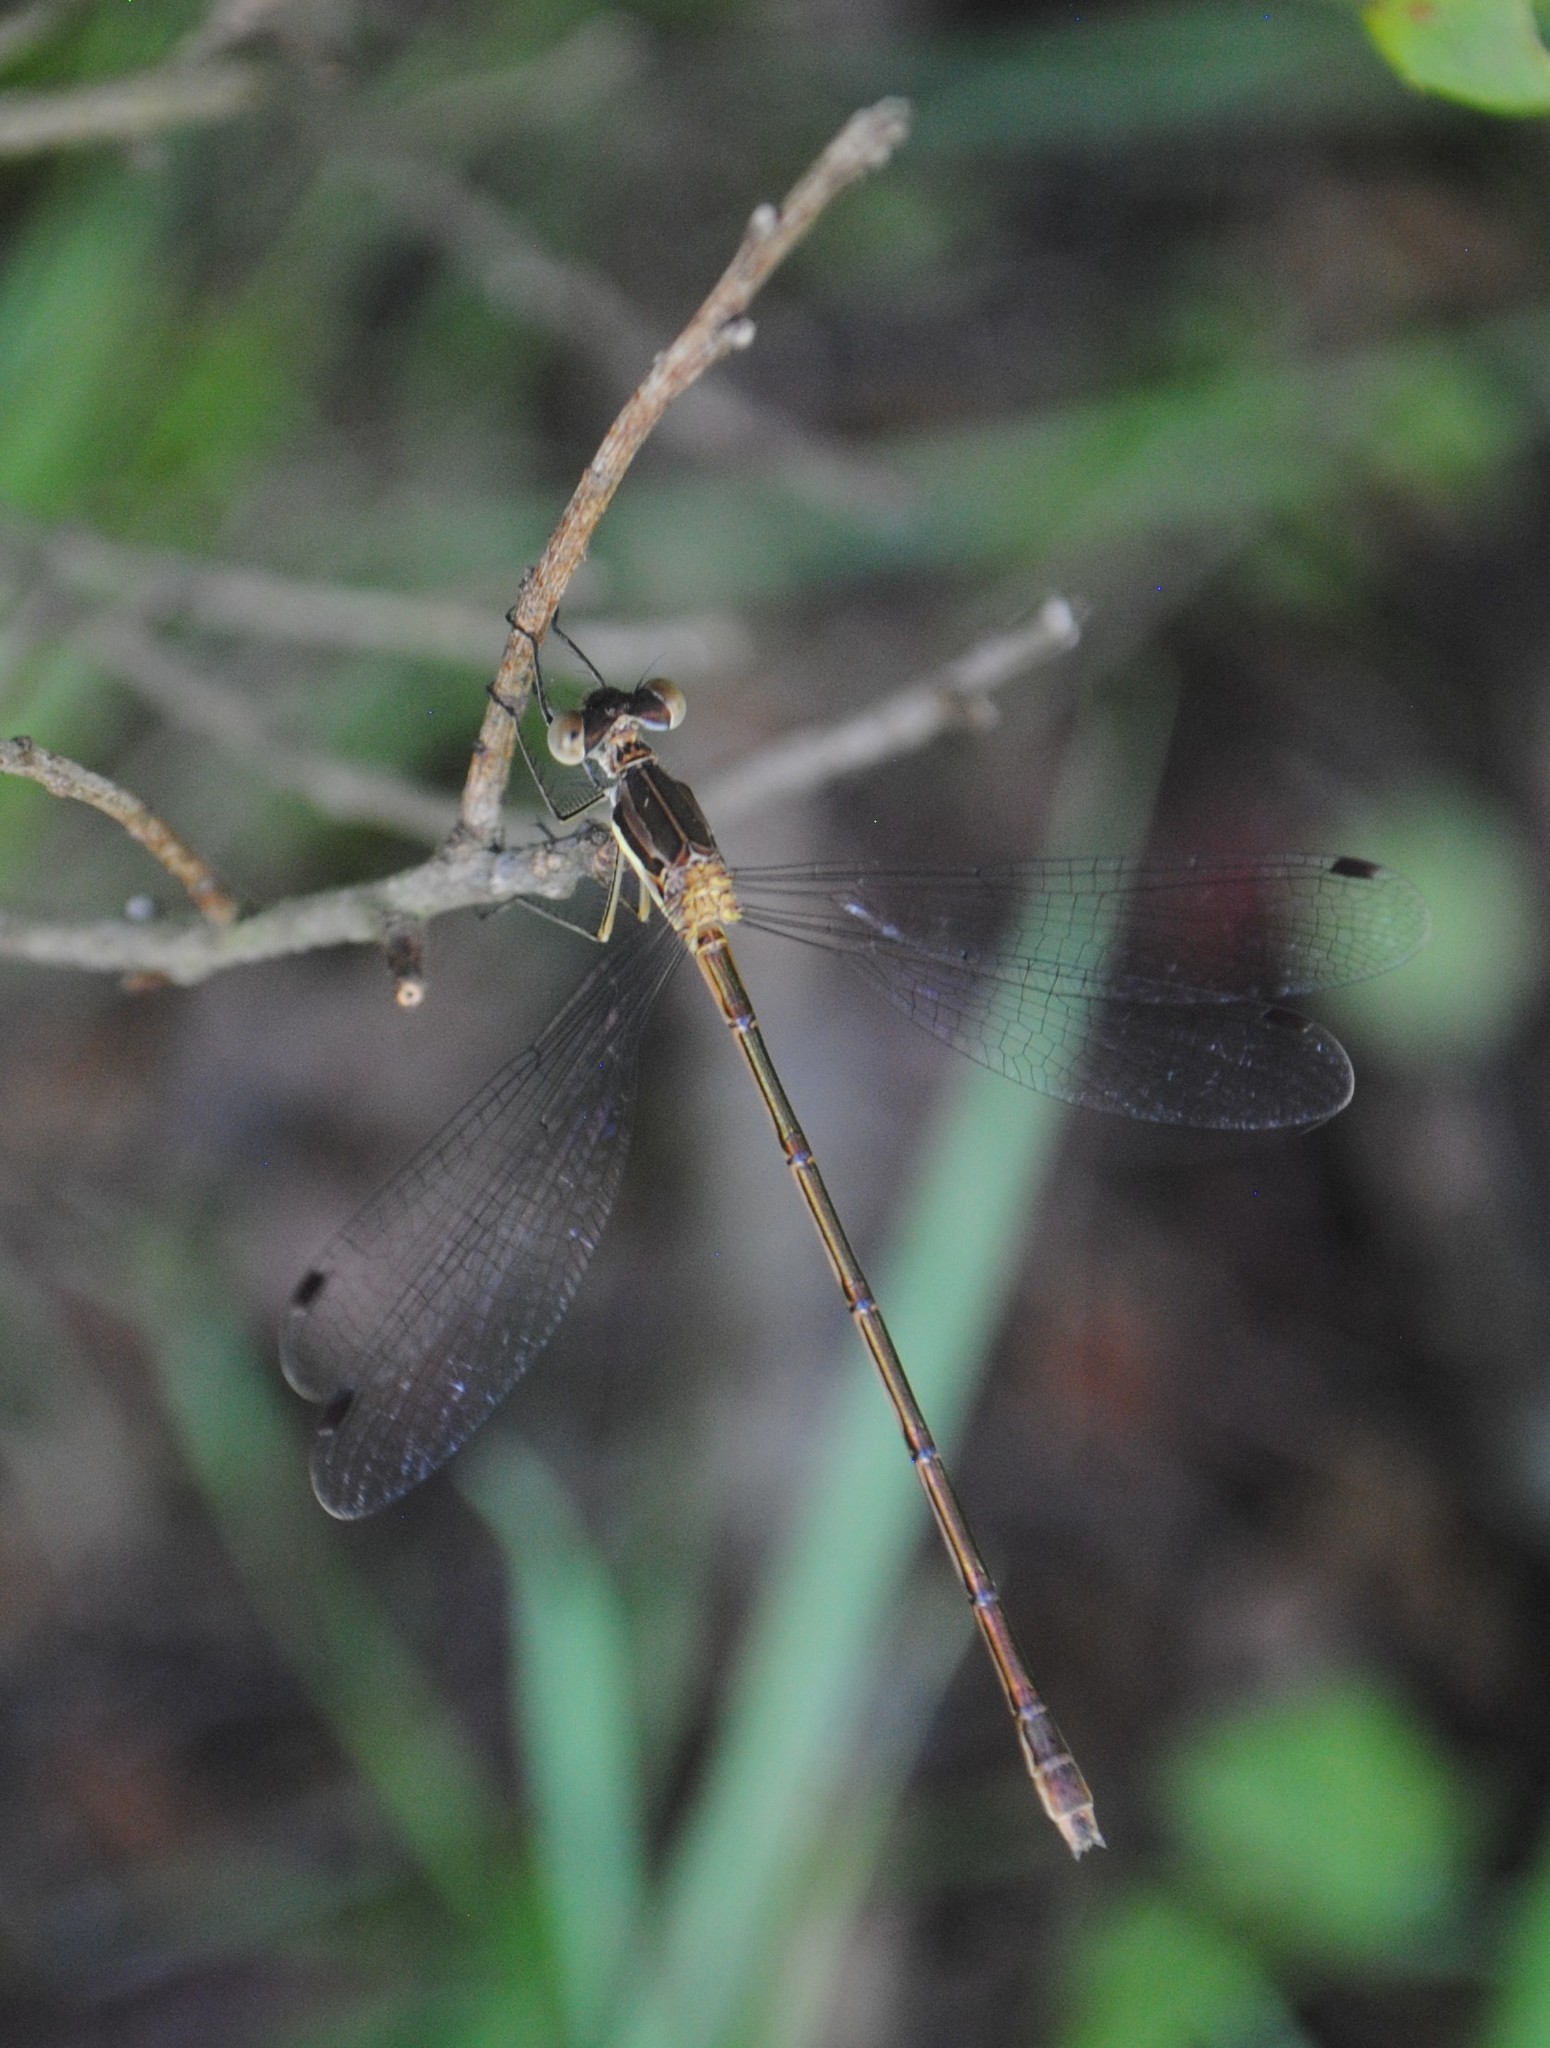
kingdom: Animalia
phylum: Arthropoda
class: Insecta
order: Odonata
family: Lestidae
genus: Lestes
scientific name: Lestes rectangularis
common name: Slender spreadwing
